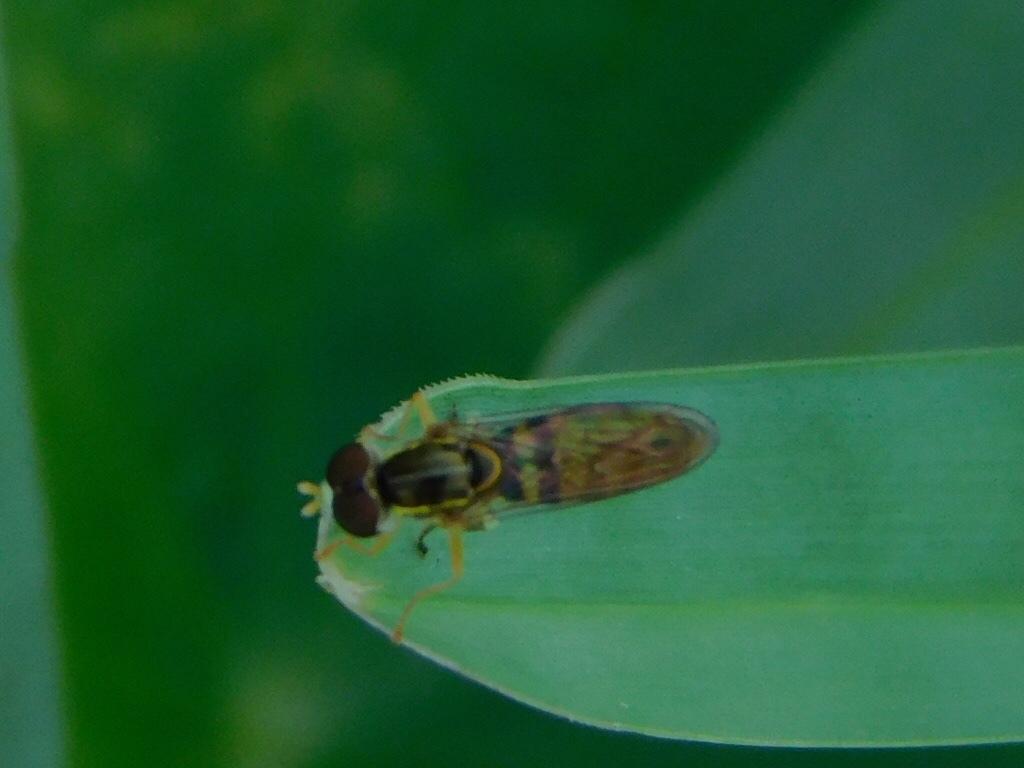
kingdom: Animalia
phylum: Arthropoda
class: Insecta
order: Diptera
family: Syrphidae
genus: Toxomerus
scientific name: Toxomerus floralis
